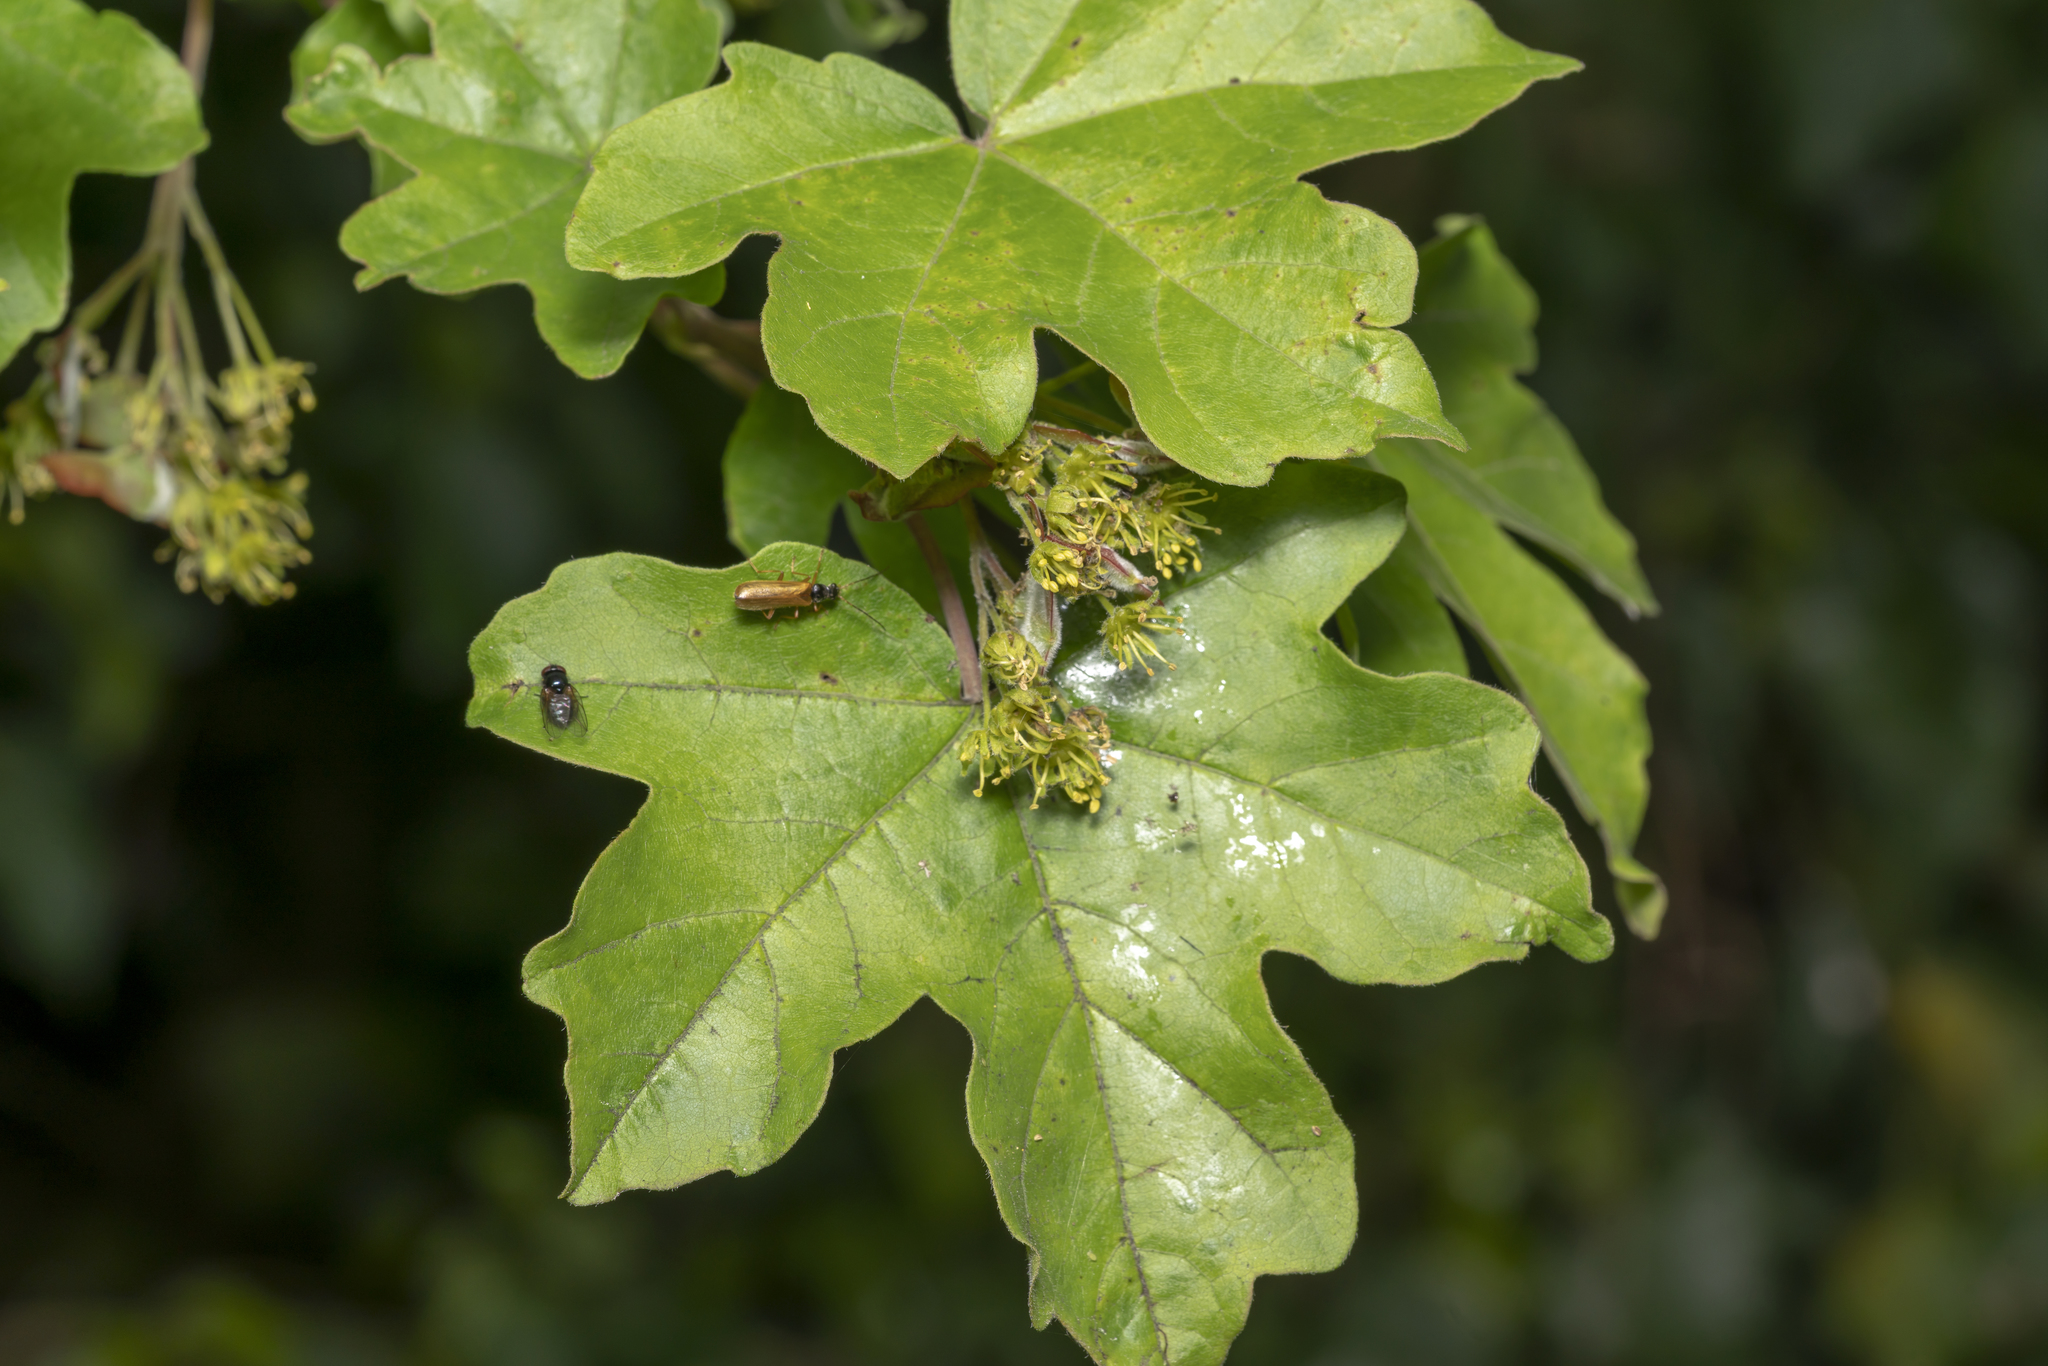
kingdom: Plantae
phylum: Tracheophyta
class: Magnoliopsida
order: Sapindales
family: Sapindaceae
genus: Acer
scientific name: Acer campestre
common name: Field maple
